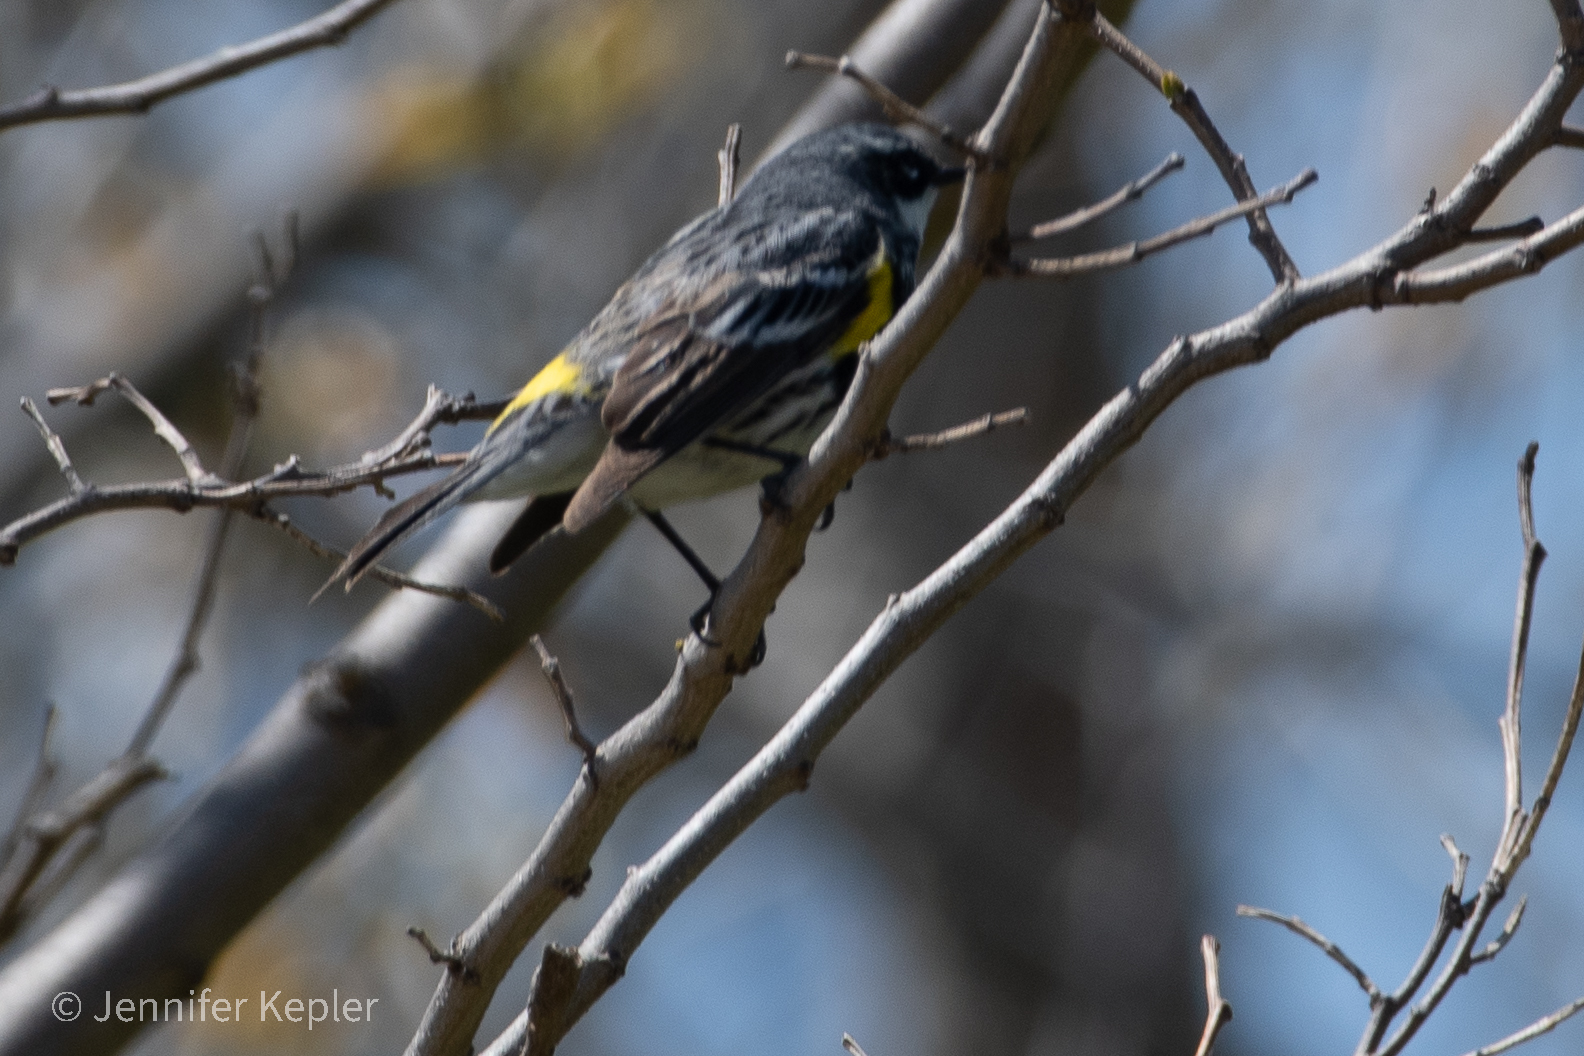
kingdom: Animalia
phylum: Chordata
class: Aves
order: Passeriformes
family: Parulidae
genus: Setophaga
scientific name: Setophaga coronata
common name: Myrtle warbler
